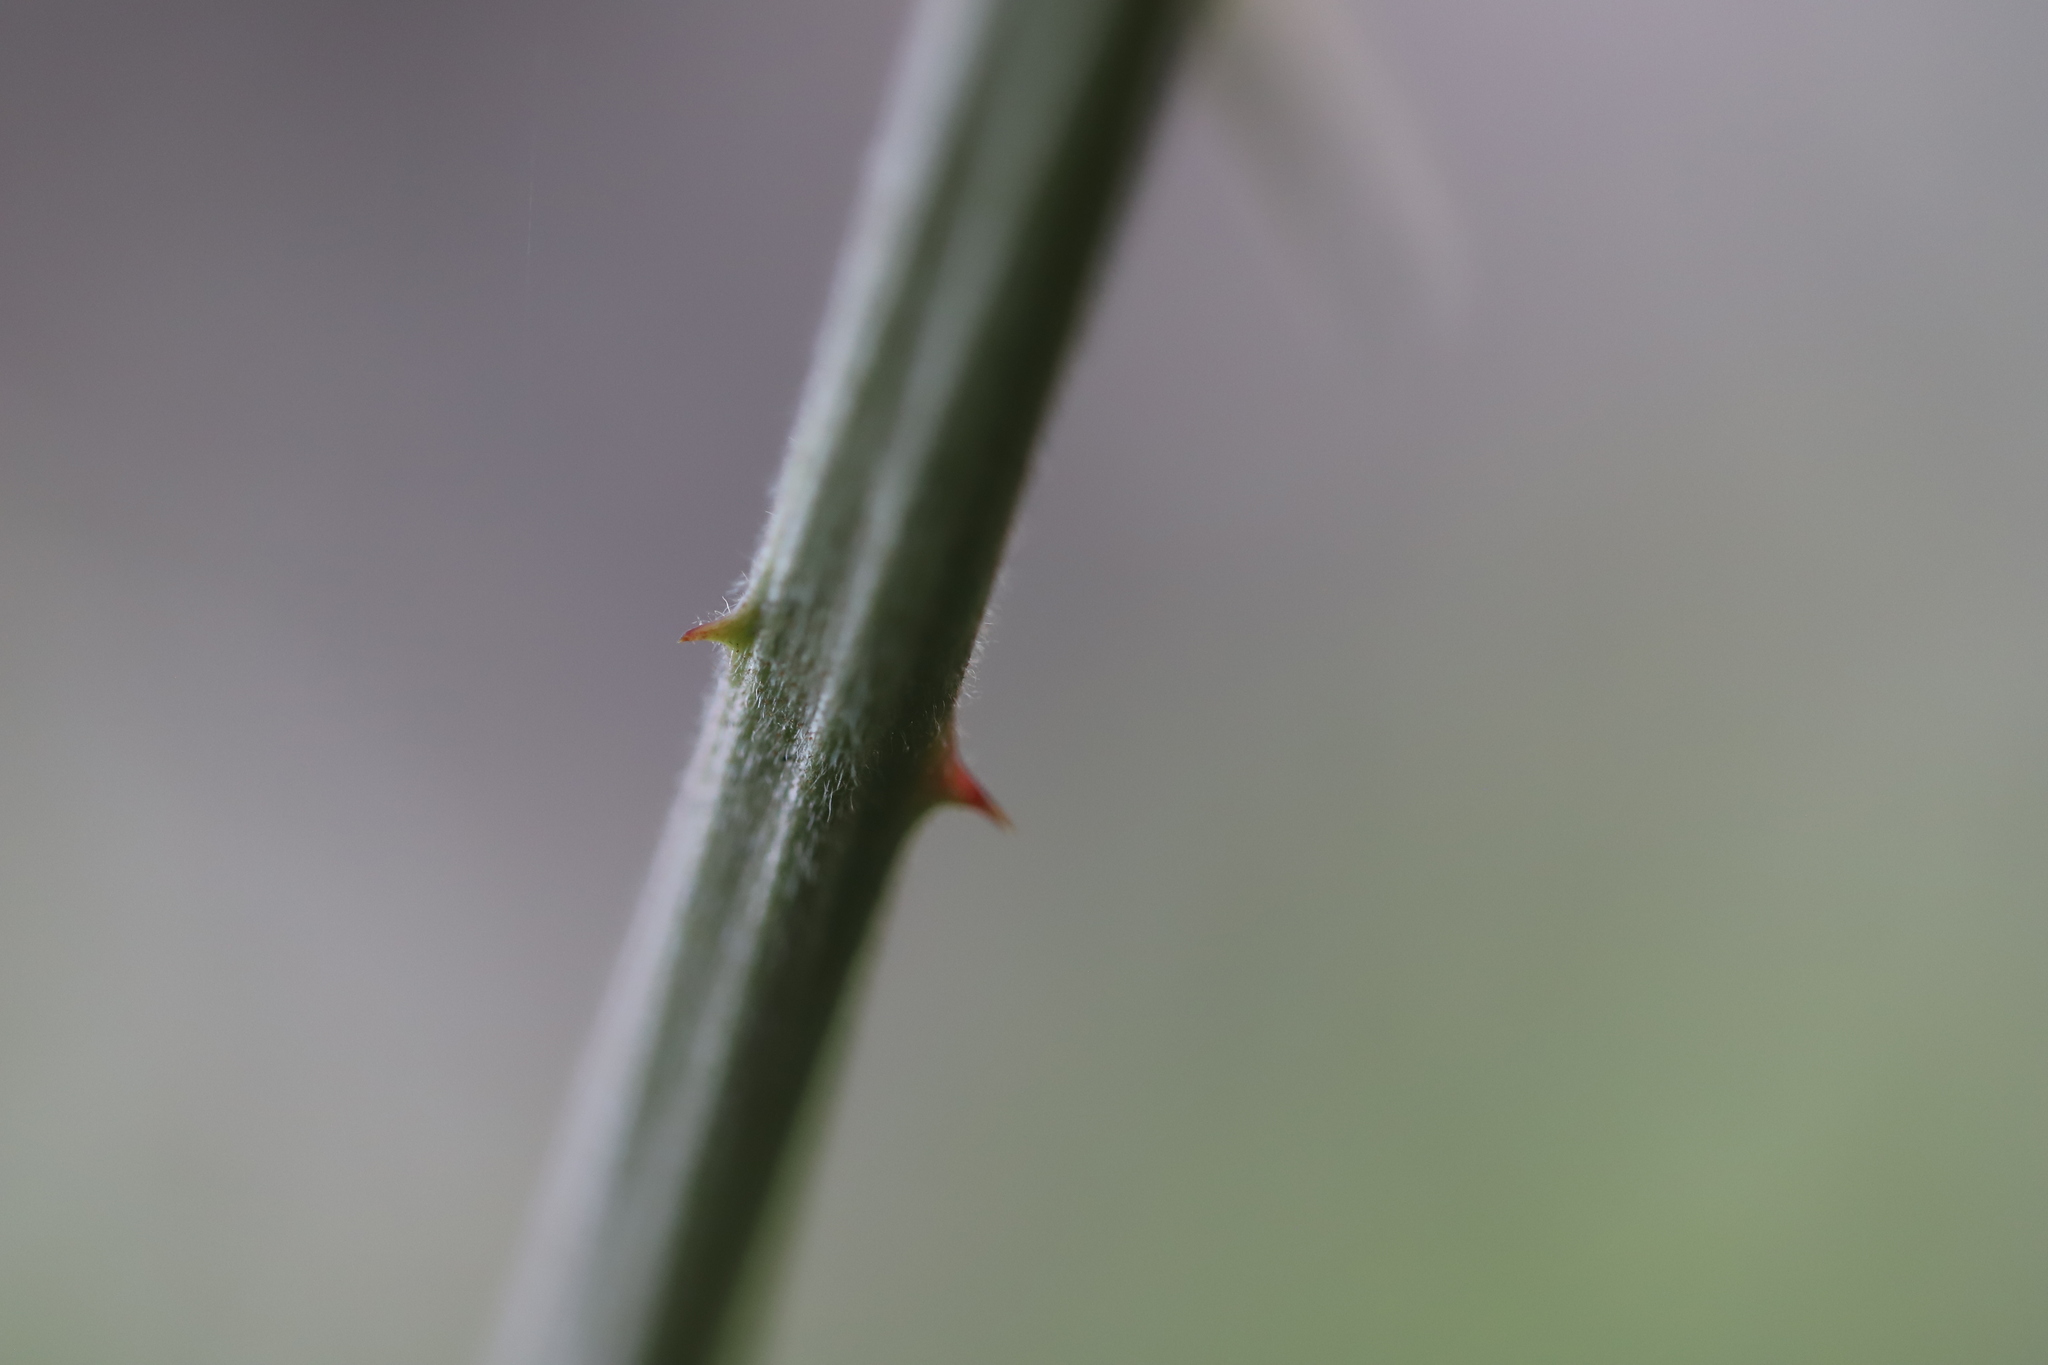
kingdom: Fungi
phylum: Basidiomycota
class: Pucciniomycetes
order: Pucciniales
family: Phragmidiaceae
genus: Phragmidium
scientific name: Phragmidium violaceum
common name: Violet bramble rust
